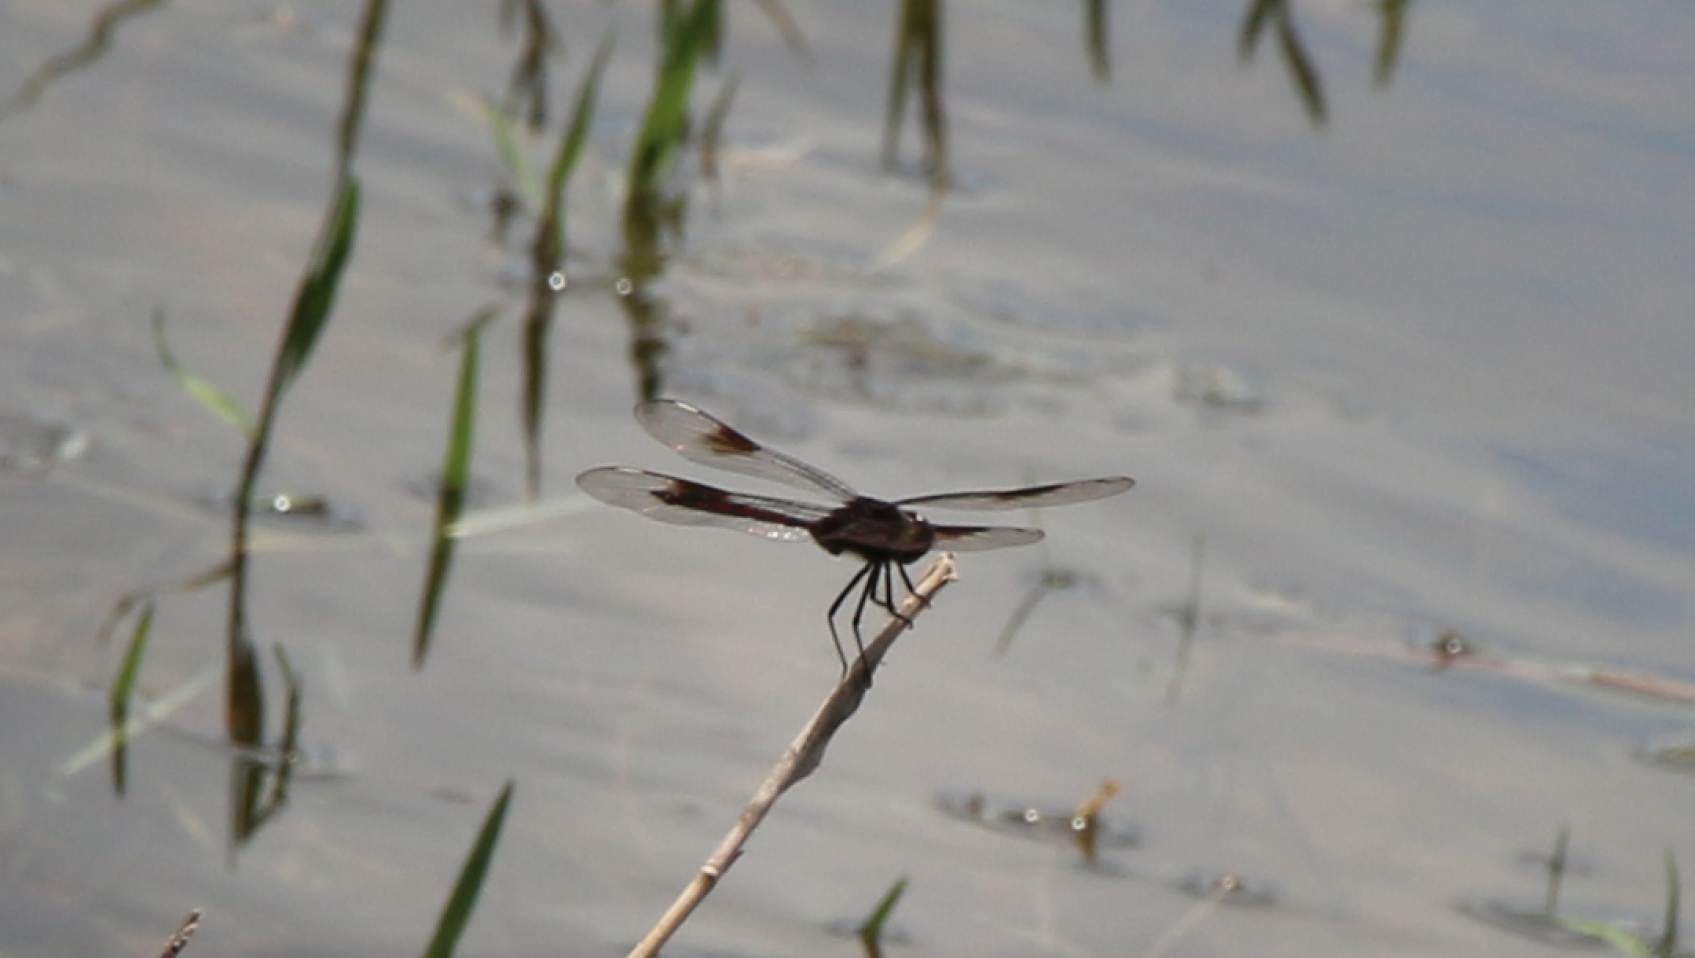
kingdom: Animalia
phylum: Arthropoda
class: Insecta
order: Odonata
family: Libellulidae
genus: Brachymesia
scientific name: Brachymesia gravida
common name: Four-spotted pennant
